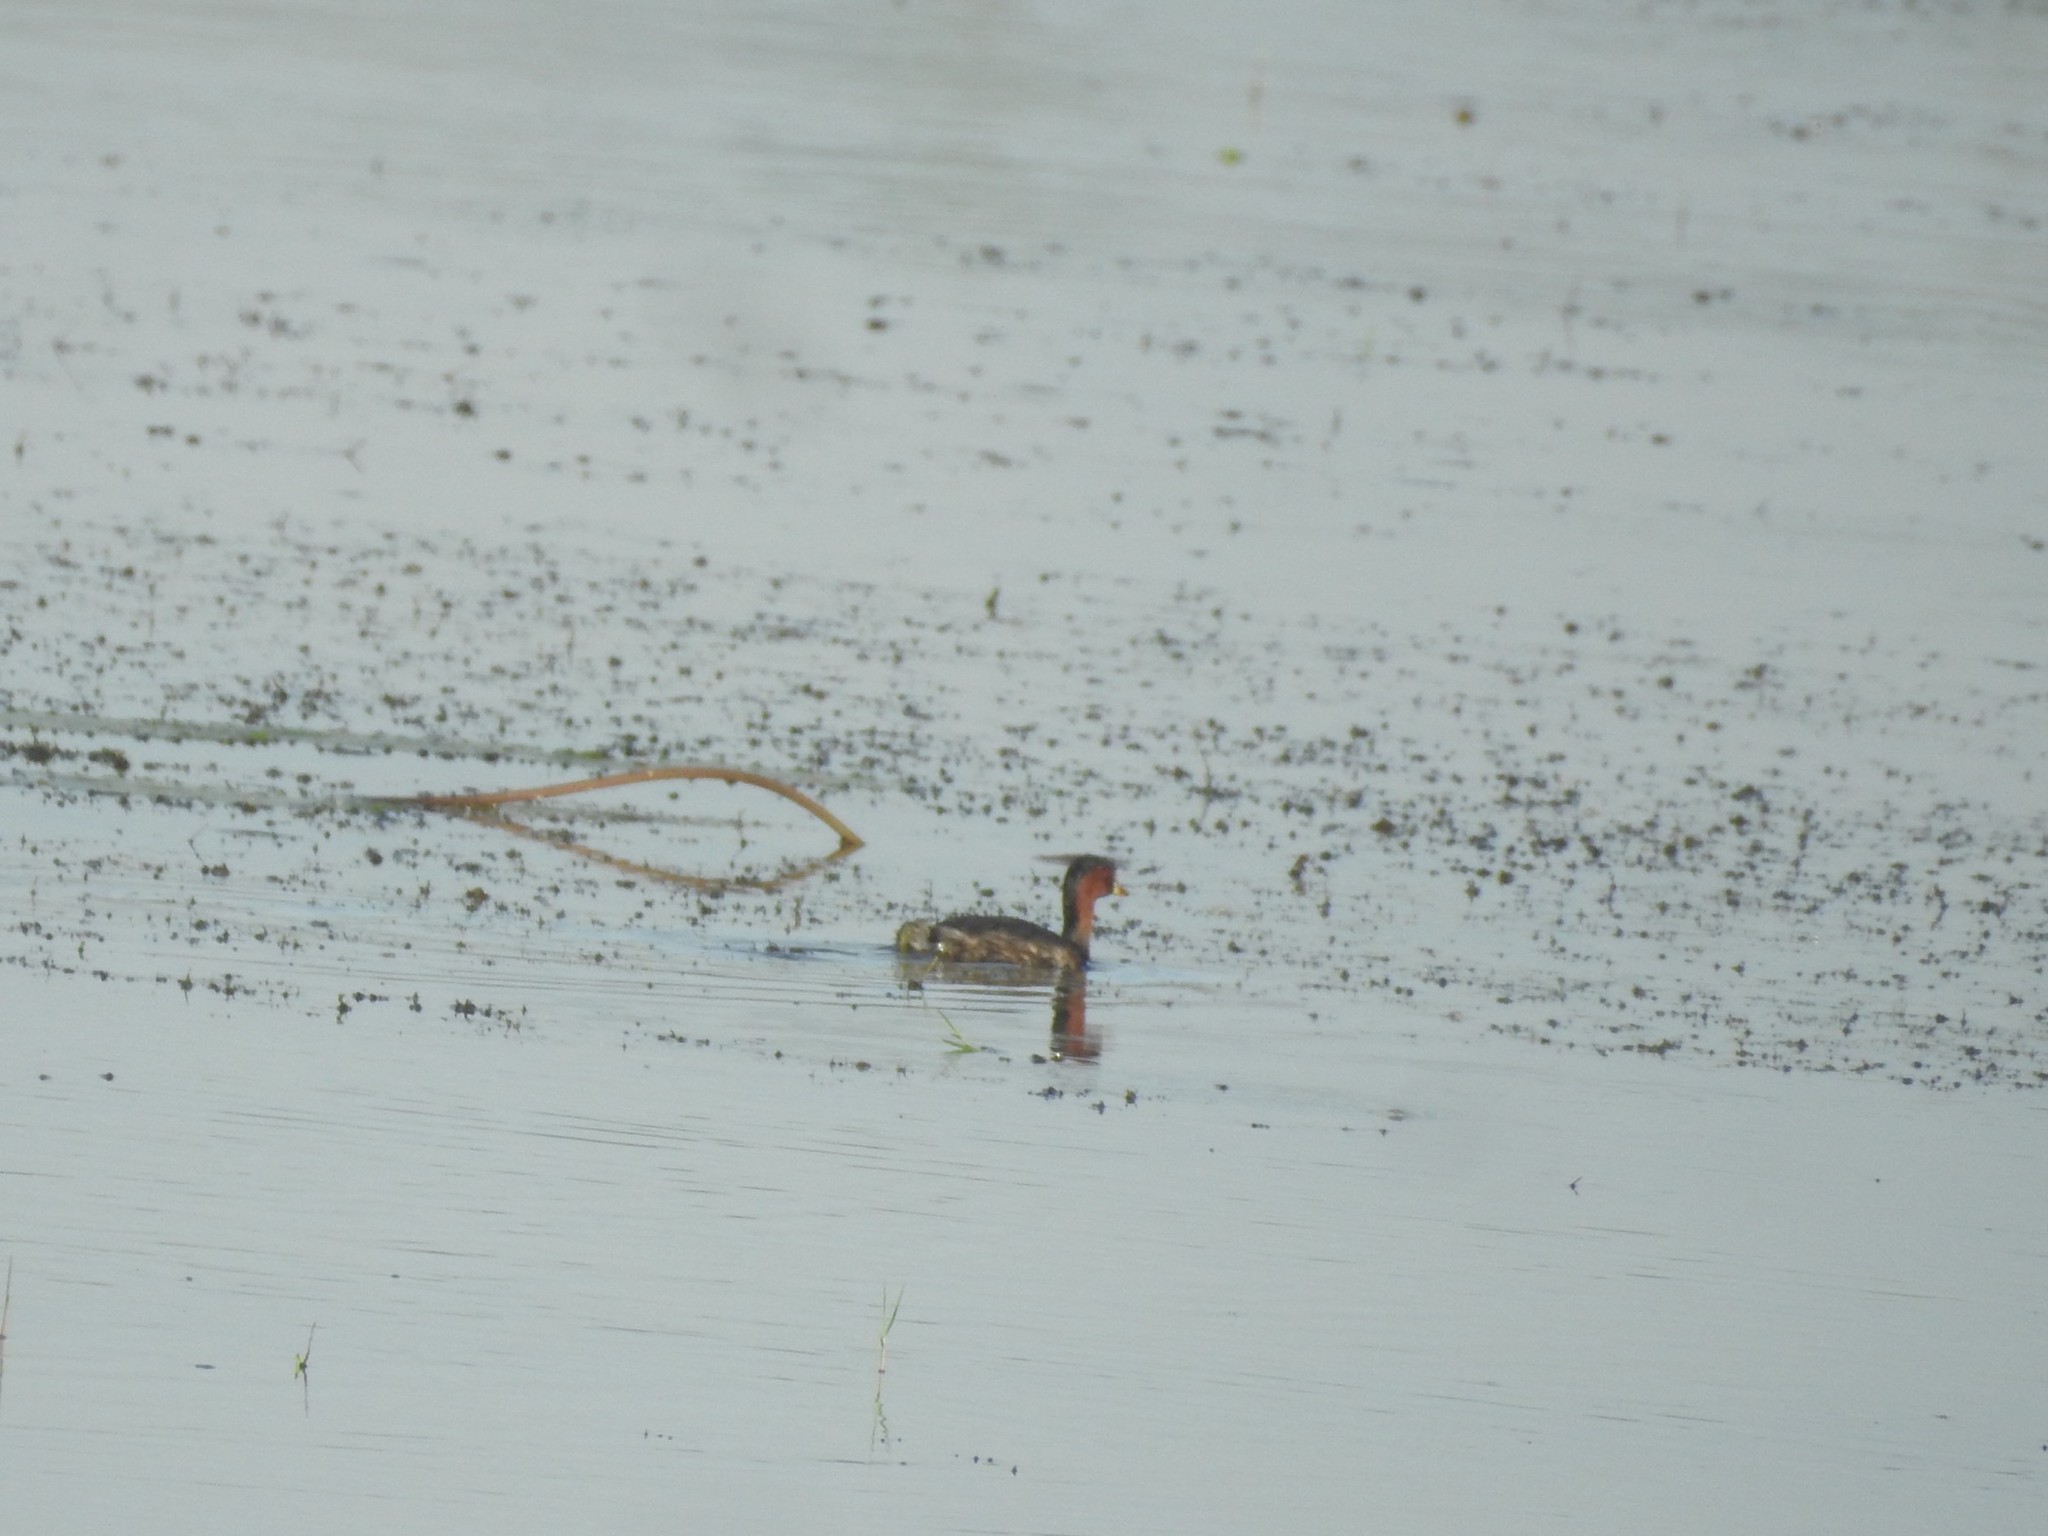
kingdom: Animalia
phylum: Chordata
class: Aves
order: Podicipediformes
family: Podicipedidae
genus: Tachybaptus
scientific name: Tachybaptus ruficollis
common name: Little grebe
